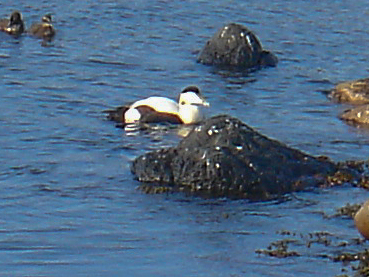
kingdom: Animalia
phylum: Chordata
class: Aves
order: Anseriformes
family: Anatidae
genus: Somateria
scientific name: Somateria mollissima
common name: Common eider
